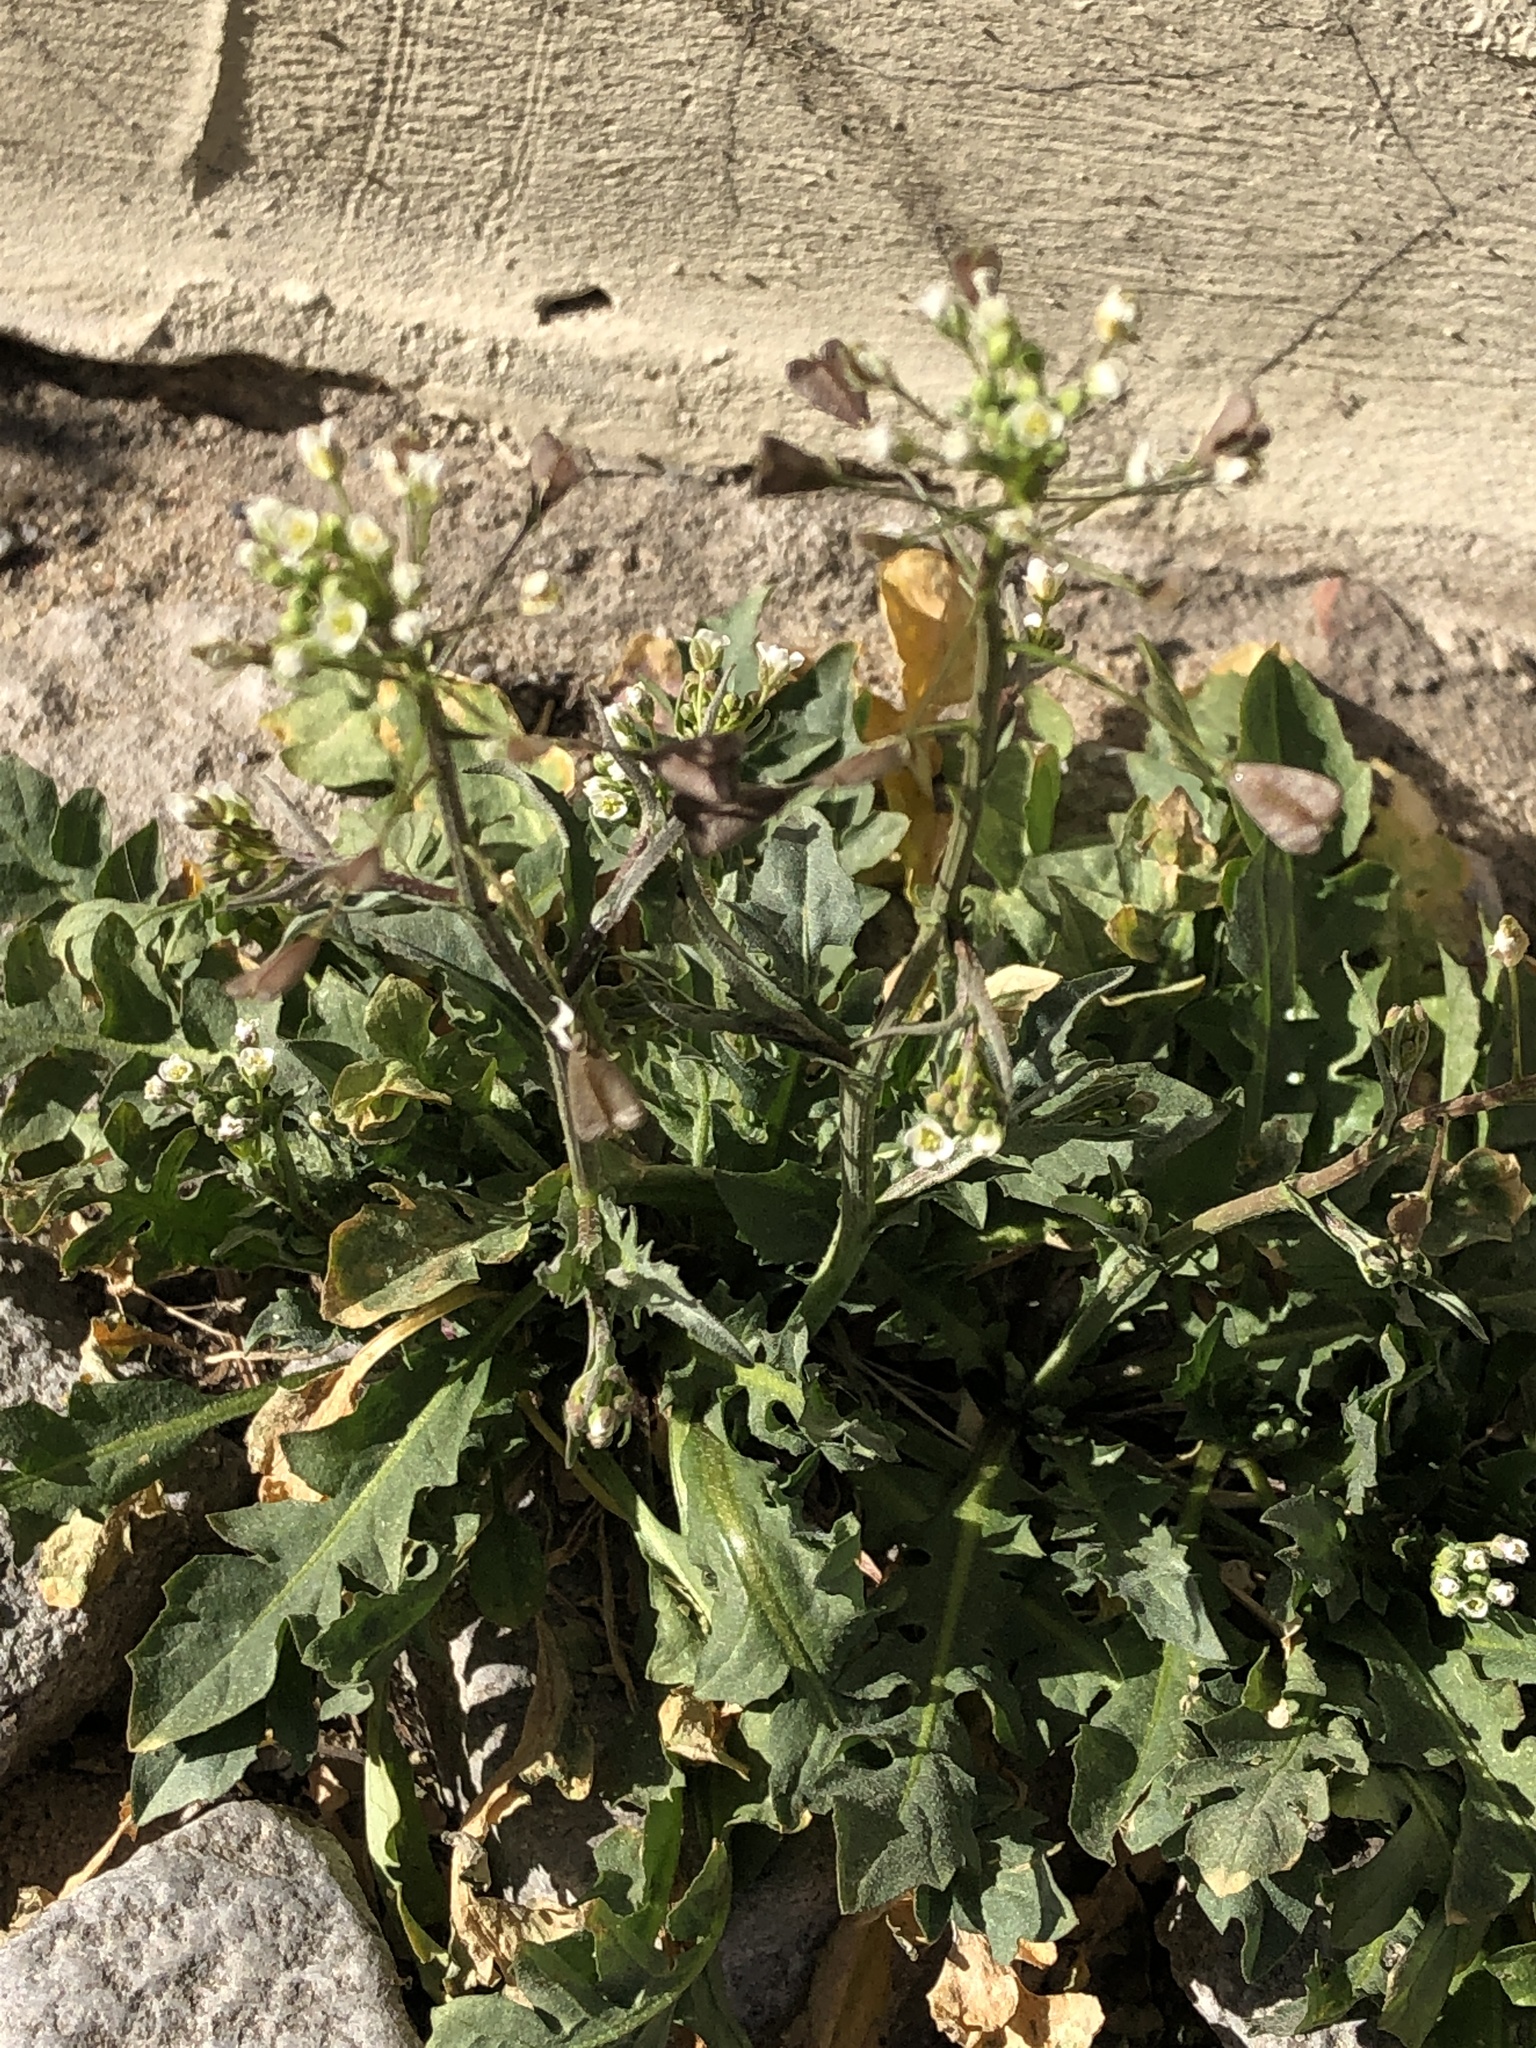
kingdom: Plantae
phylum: Tracheophyta
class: Magnoliopsida
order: Brassicales
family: Brassicaceae
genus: Capsella
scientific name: Capsella bursa-pastoris
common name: Shepherd's purse
